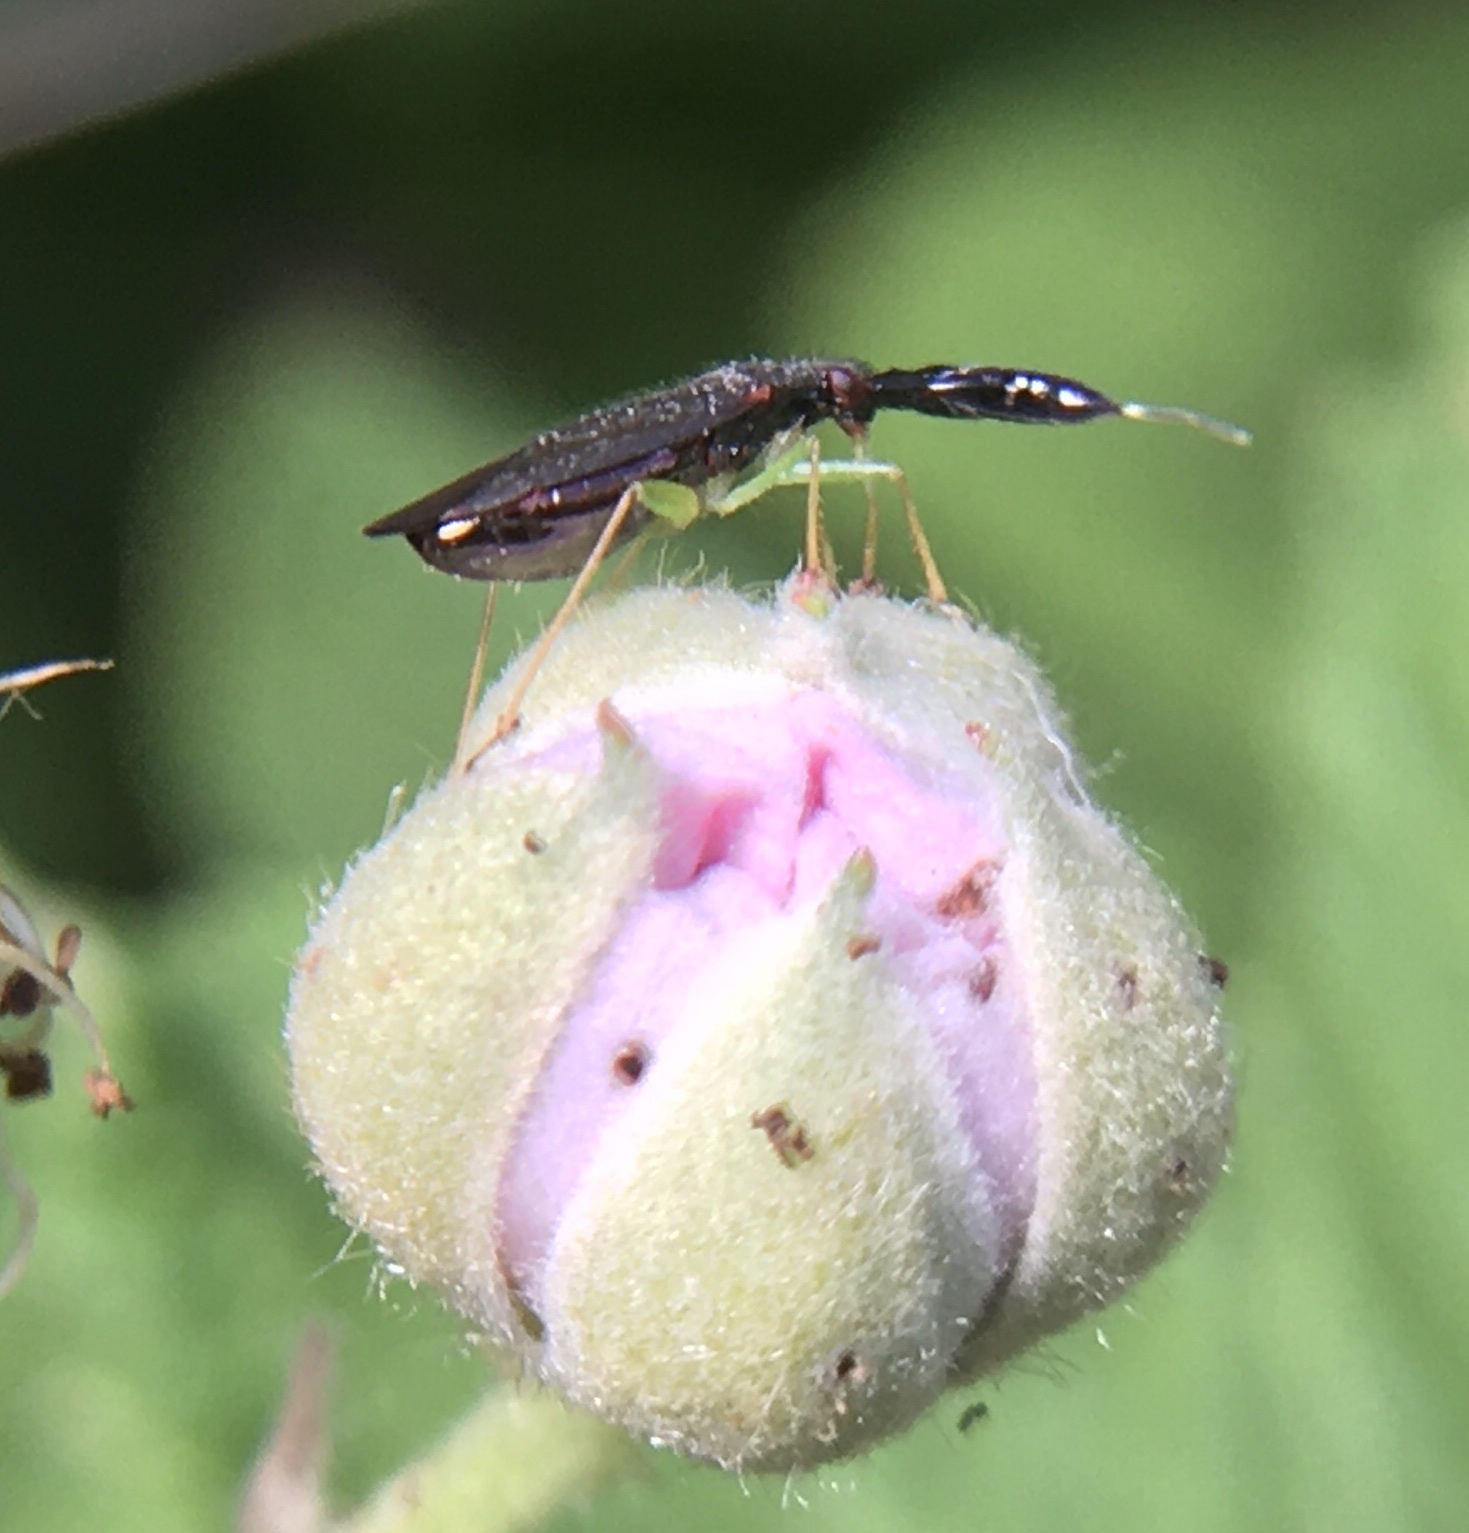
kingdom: Animalia
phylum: Arthropoda
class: Insecta
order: Hemiptera
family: Miridae
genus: Heterotoma
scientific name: Heterotoma planicornis
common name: Plant bug
